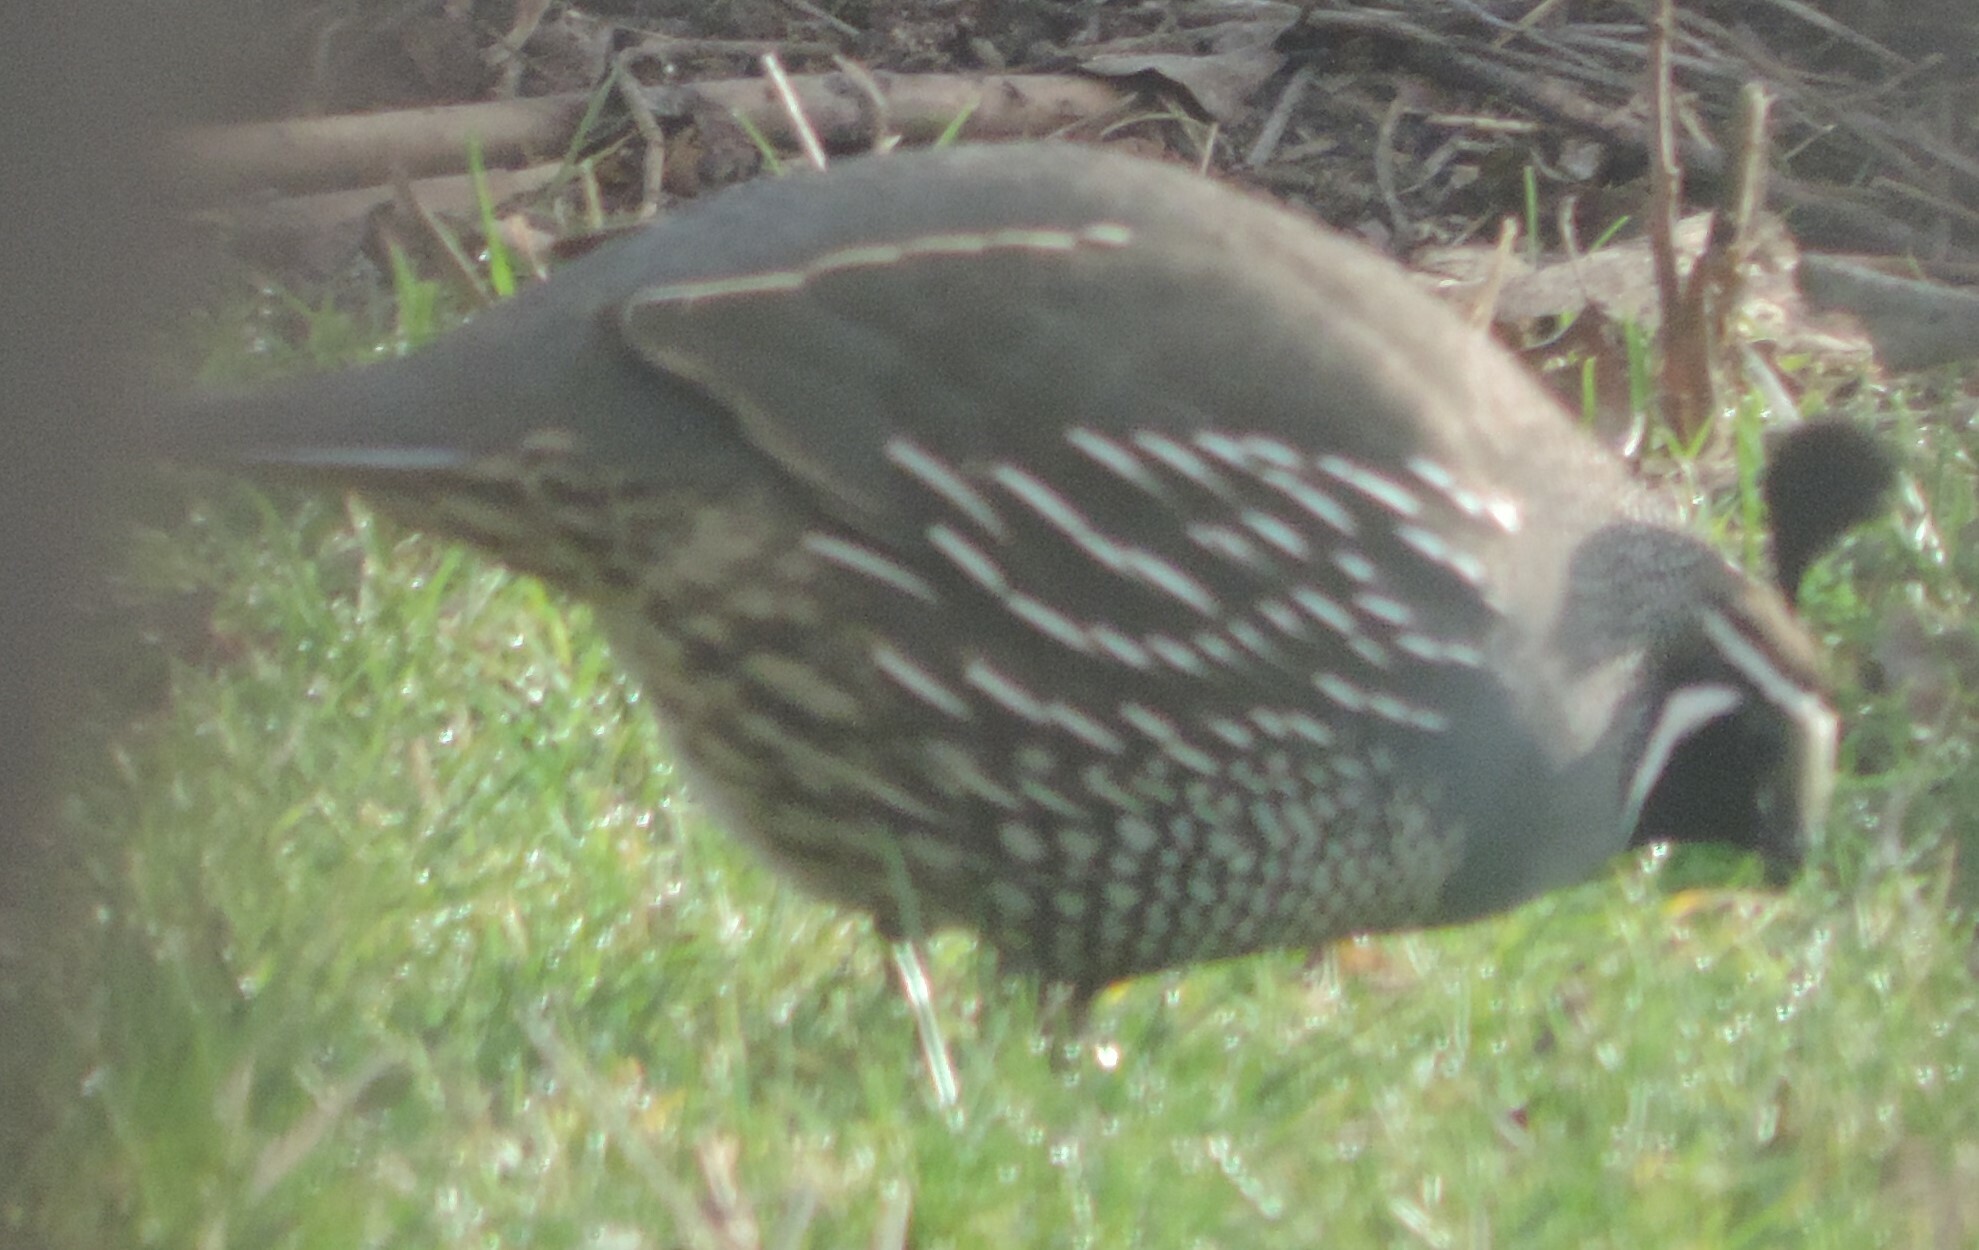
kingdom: Animalia
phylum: Chordata
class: Aves
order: Galliformes
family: Odontophoridae
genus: Callipepla
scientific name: Callipepla californica
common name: California quail
